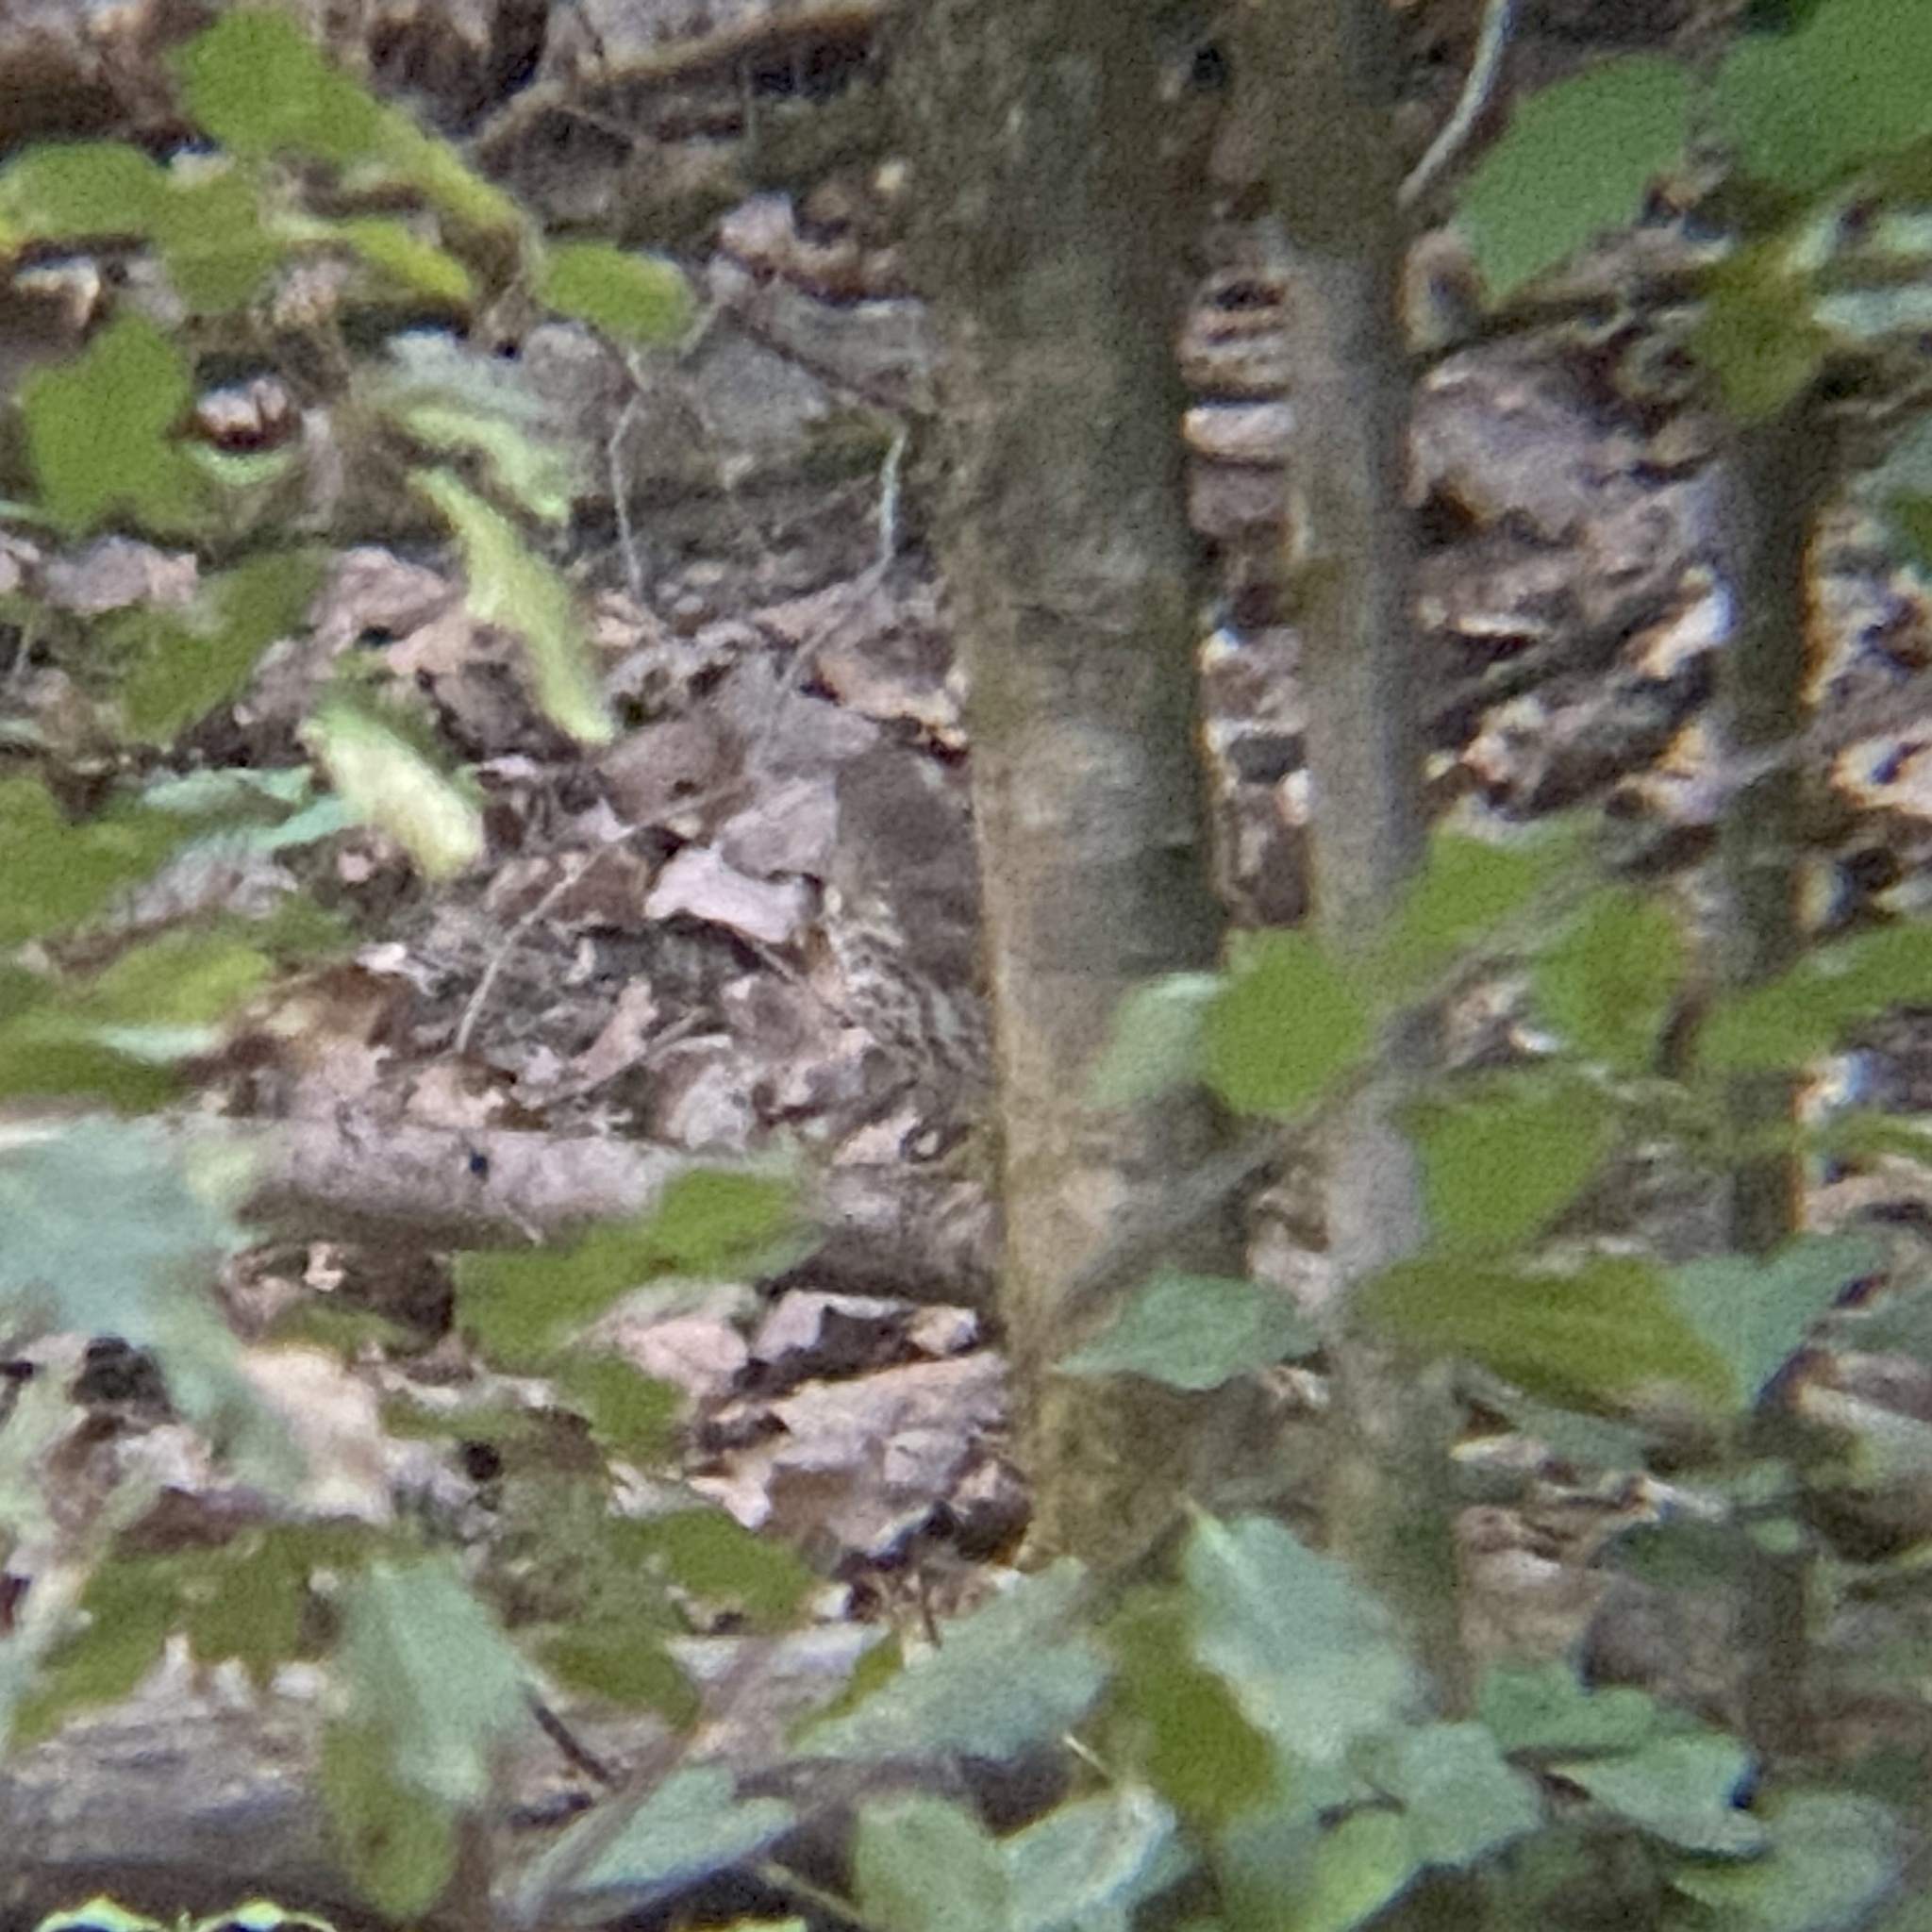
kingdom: Animalia
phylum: Chordata
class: Aves
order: Passeriformes
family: Turdidae
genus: Turdus
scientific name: Turdus philomelos
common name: Song thrush
